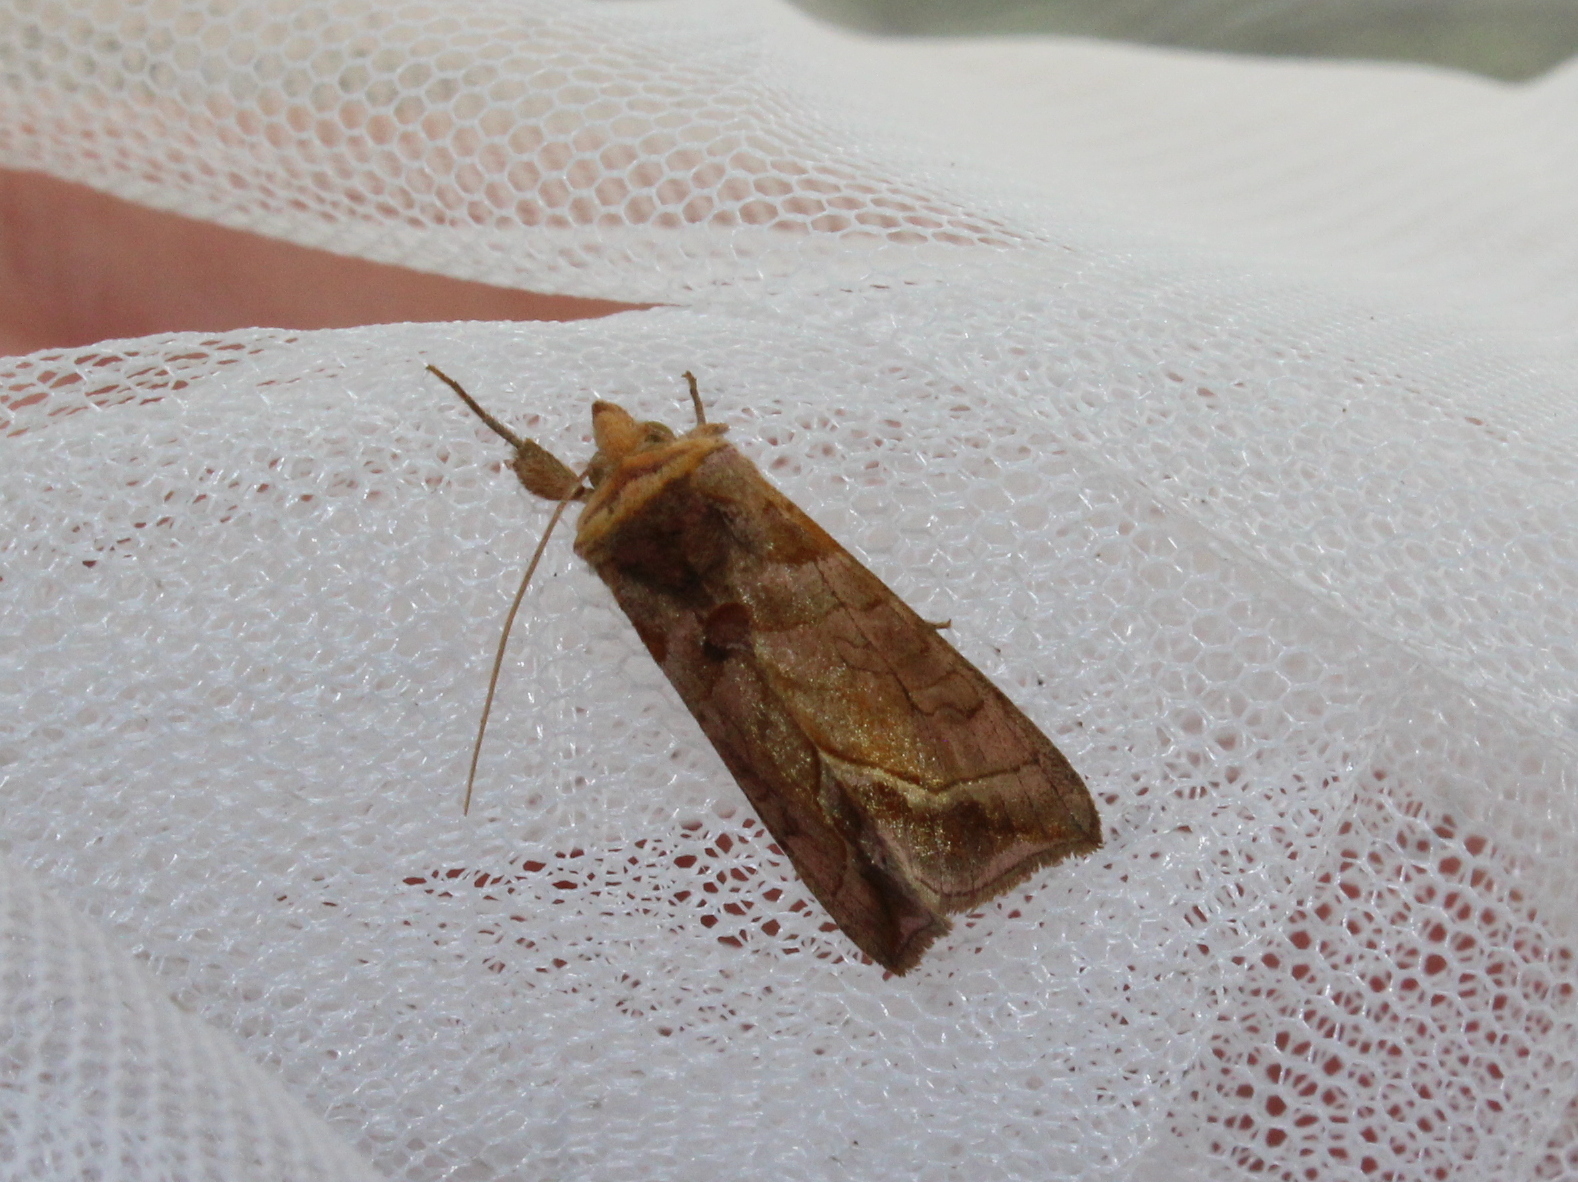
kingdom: Animalia
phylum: Arthropoda
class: Insecta
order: Lepidoptera
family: Noctuidae
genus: Diachrysia
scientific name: Diachrysia aereoides
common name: Dark-spotted looper moth
